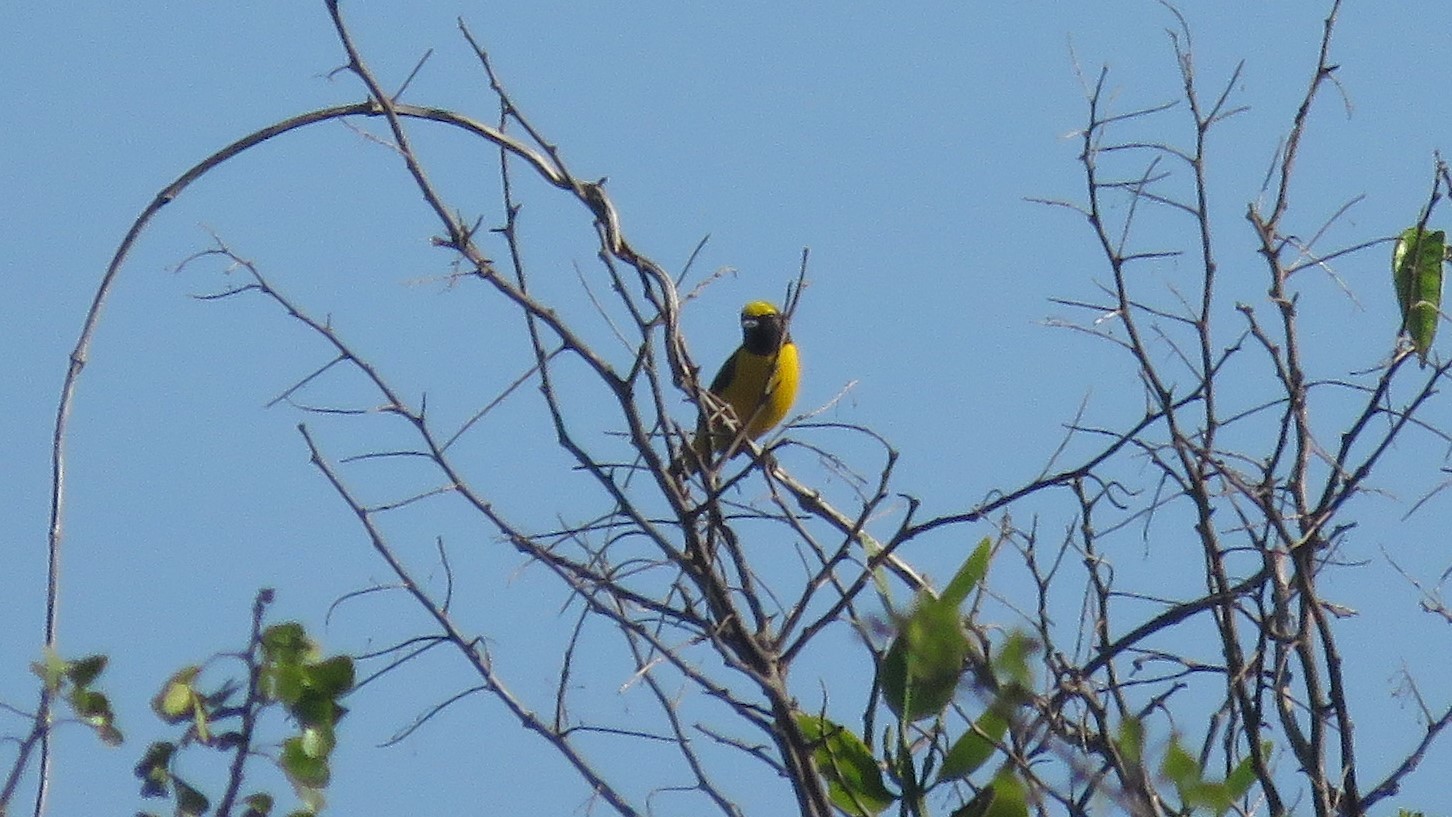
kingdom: Animalia
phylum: Chordata
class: Aves
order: Passeriformes
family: Fringillidae
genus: Euphonia
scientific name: Euphonia affinis
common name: Scrub euphonia
